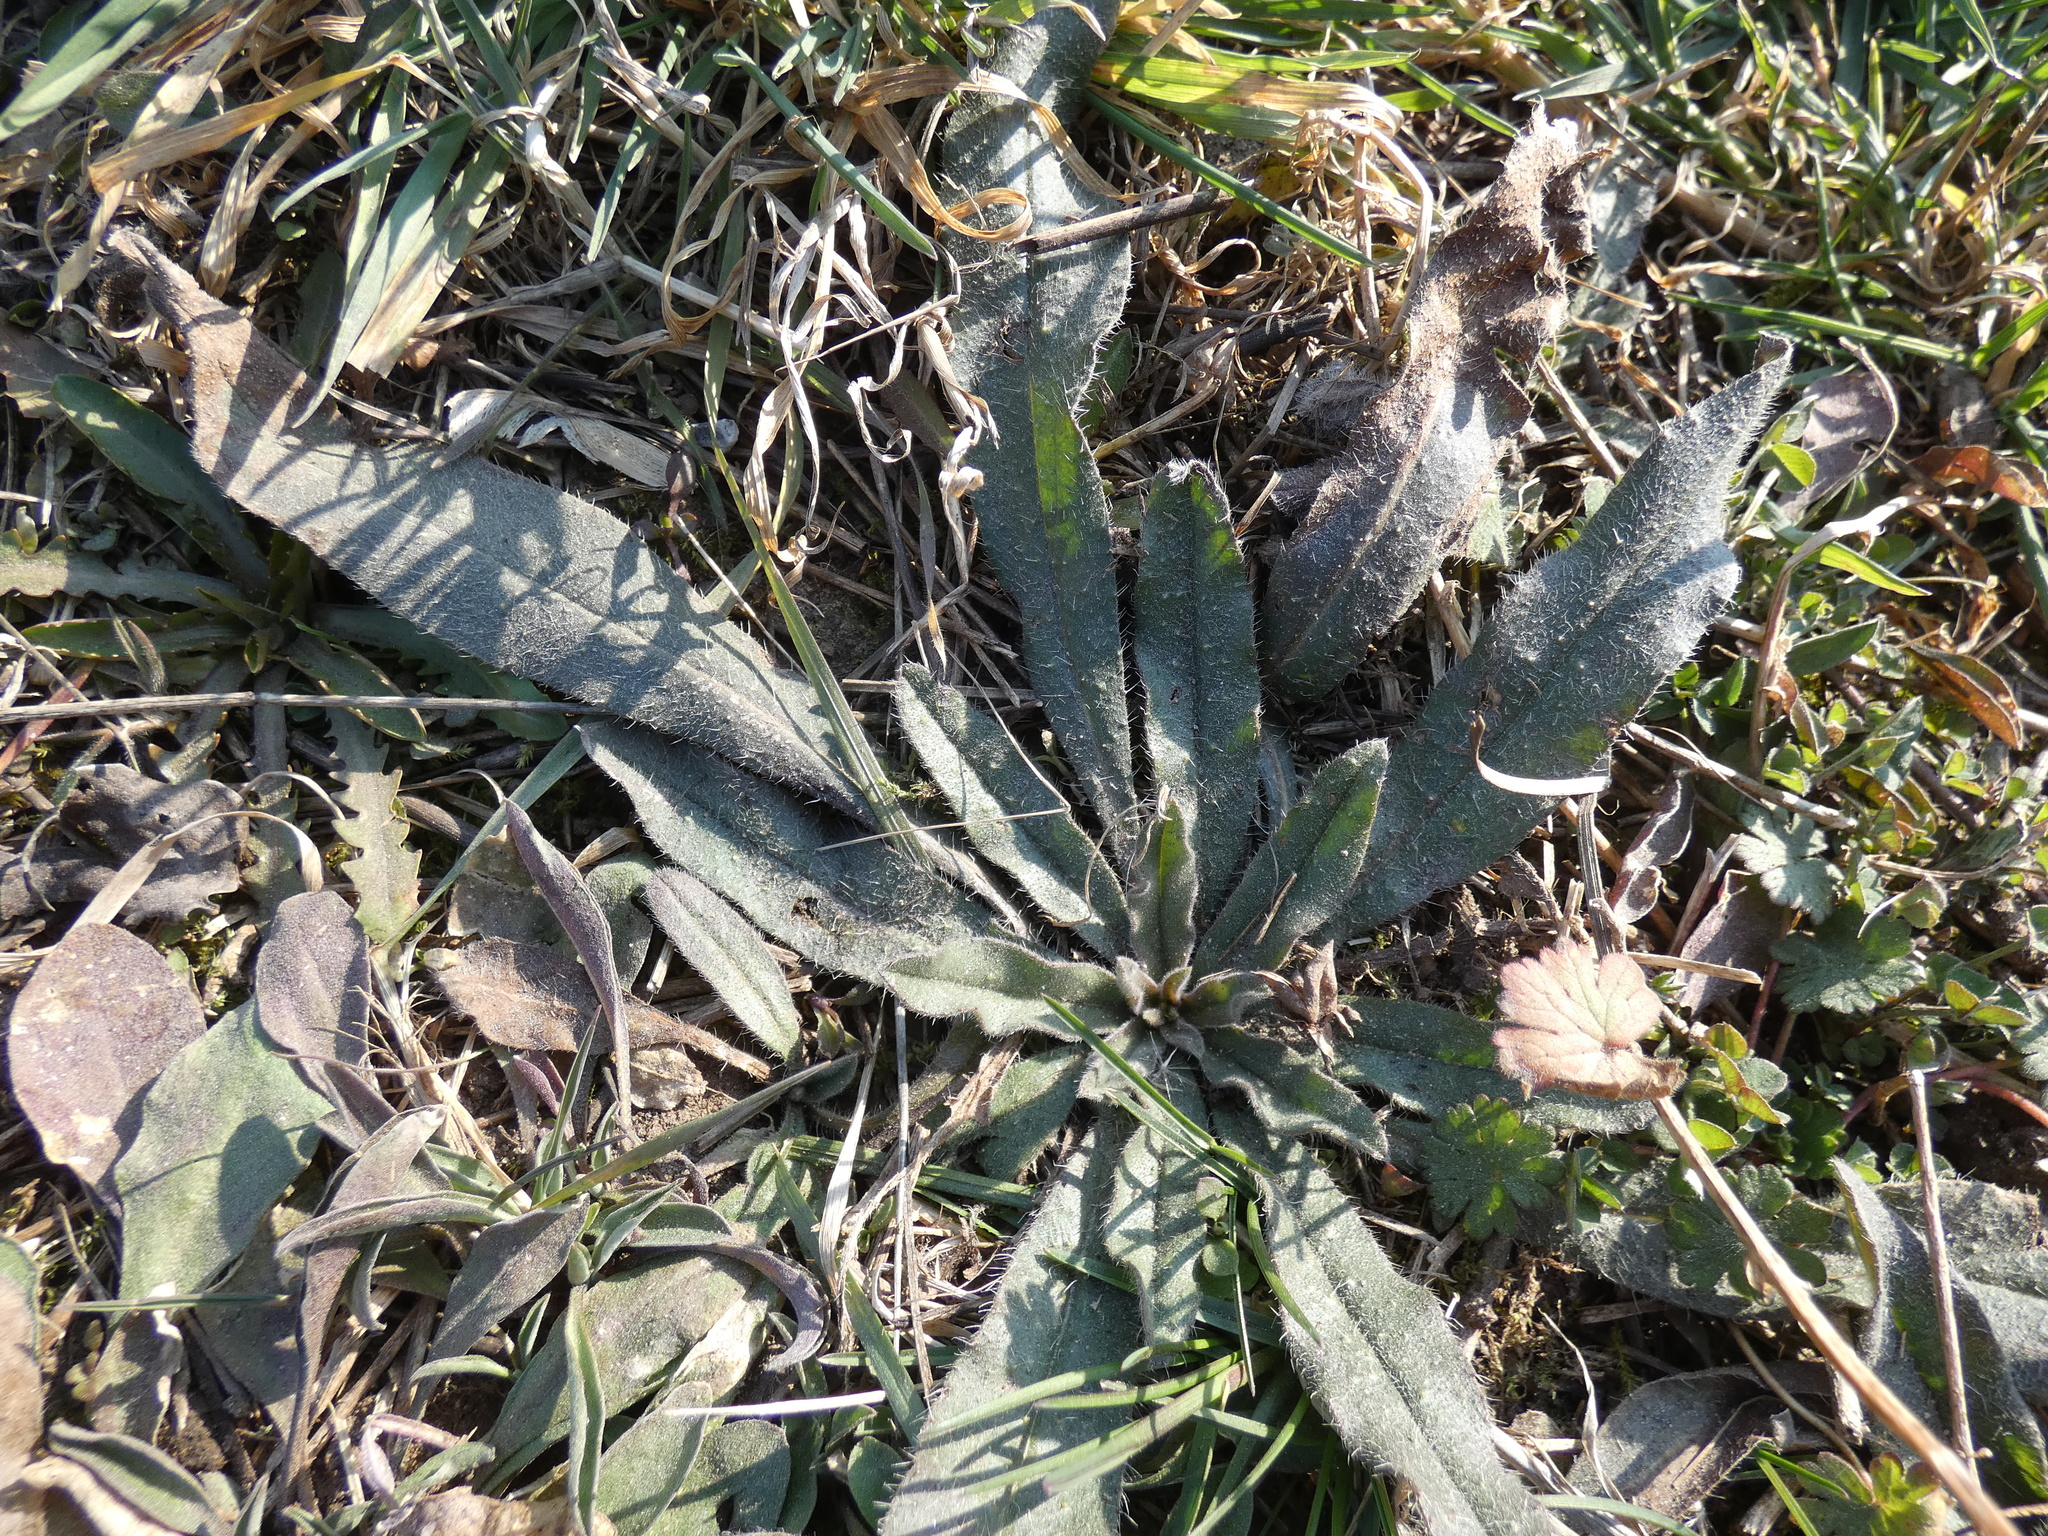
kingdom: Plantae
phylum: Tracheophyta
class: Magnoliopsida
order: Boraginales
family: Boraginaceae
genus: Echium
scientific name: Echium vulgare
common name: Common viper's bugloss
